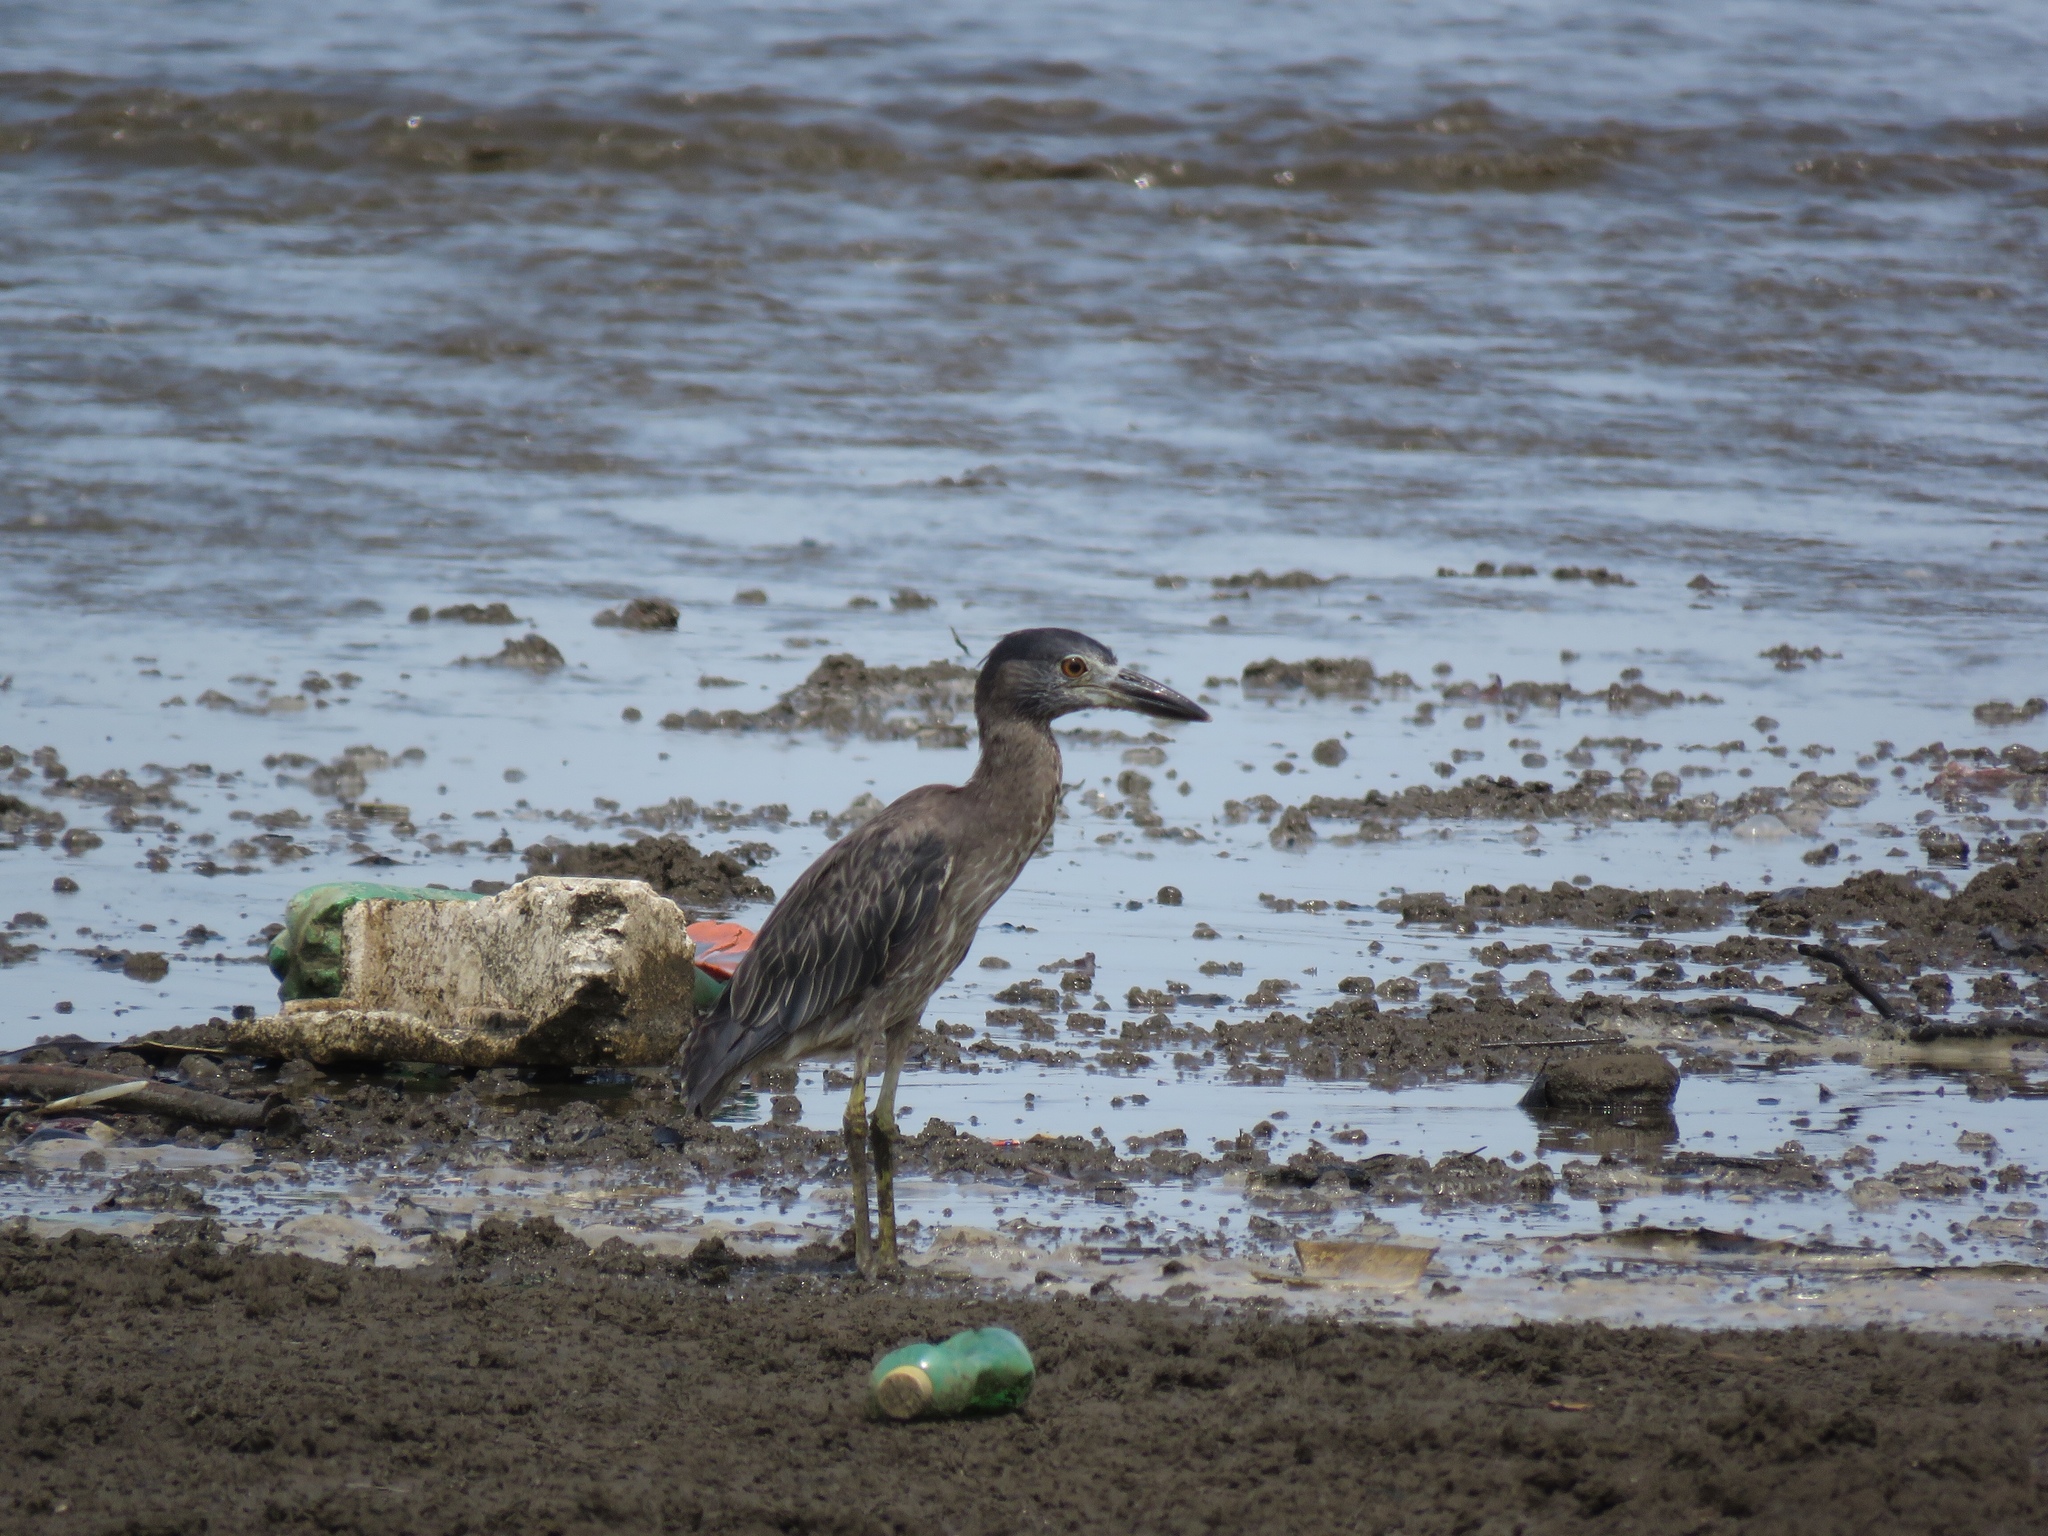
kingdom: Animalia
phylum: Chordata
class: Aves
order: Pelecaniformes
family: Ardeidae
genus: Nyctanassa
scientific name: Nyctanassa violacea
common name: Yellow-crowned night heron
